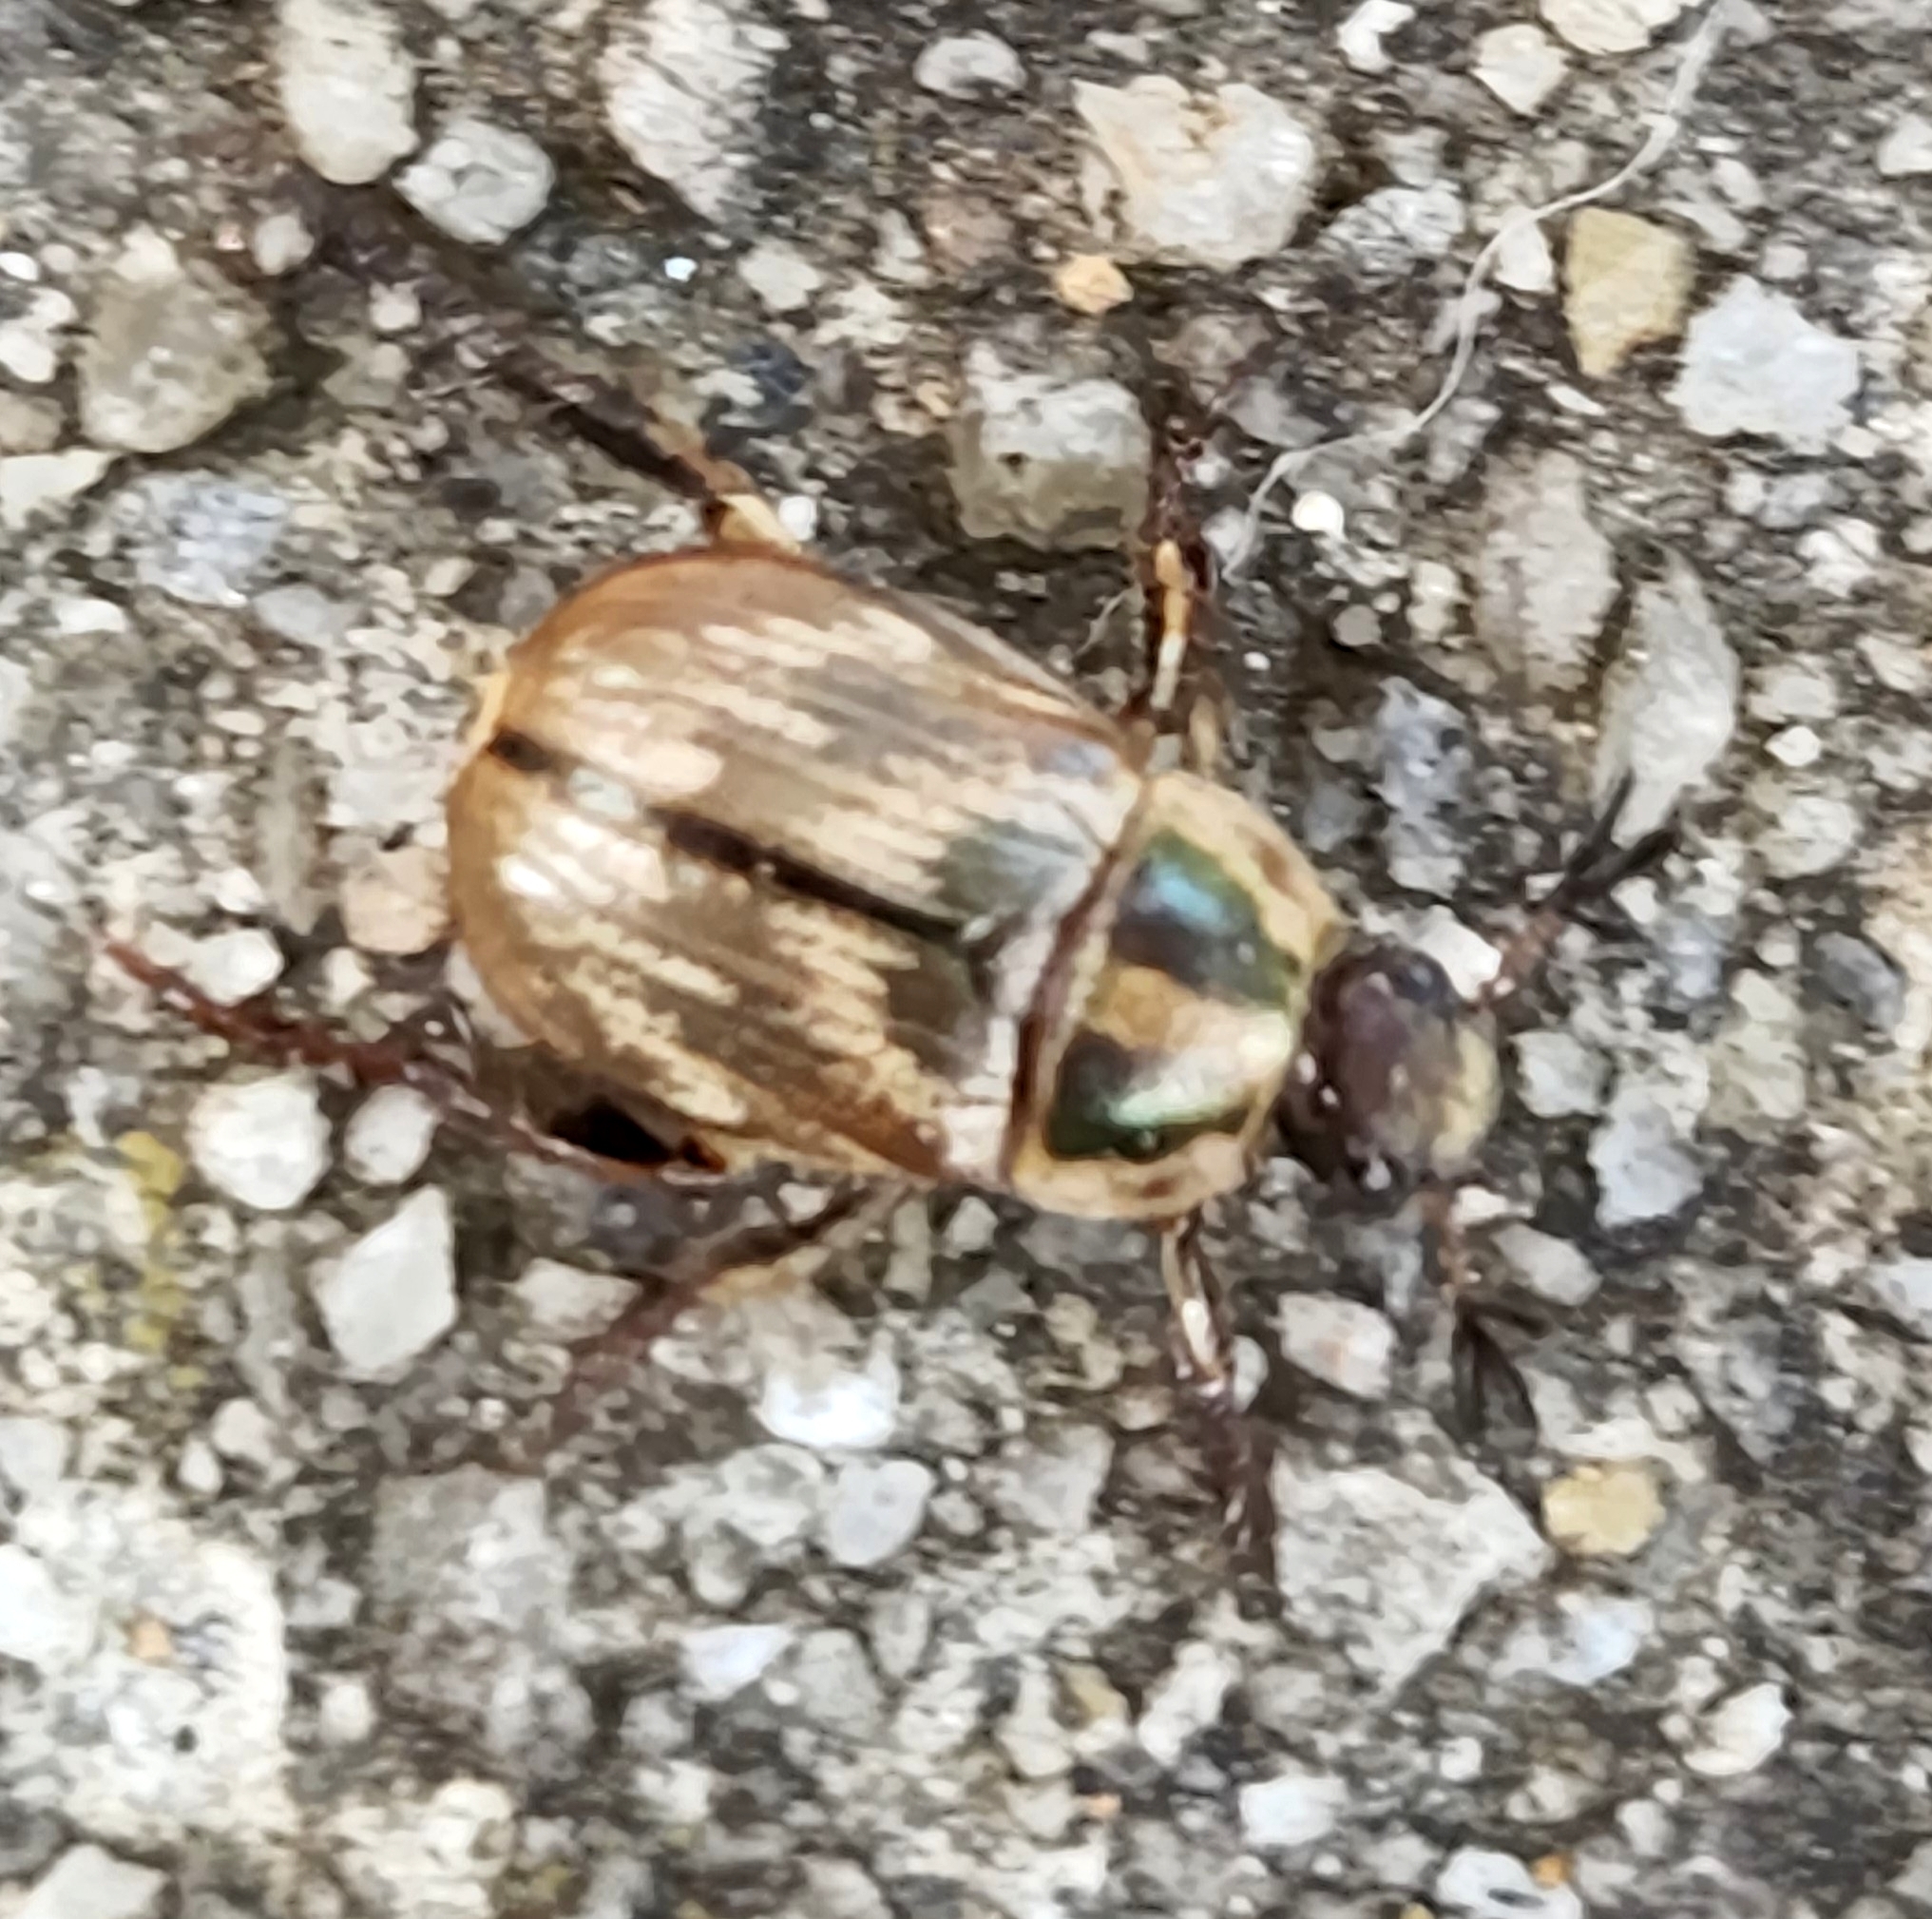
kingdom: Animalia
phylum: Arthropoda
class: Insecta
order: Coleoptera
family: Scarabaeidae
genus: Exomala
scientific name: Exomala orientalis
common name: Oriental beetle
